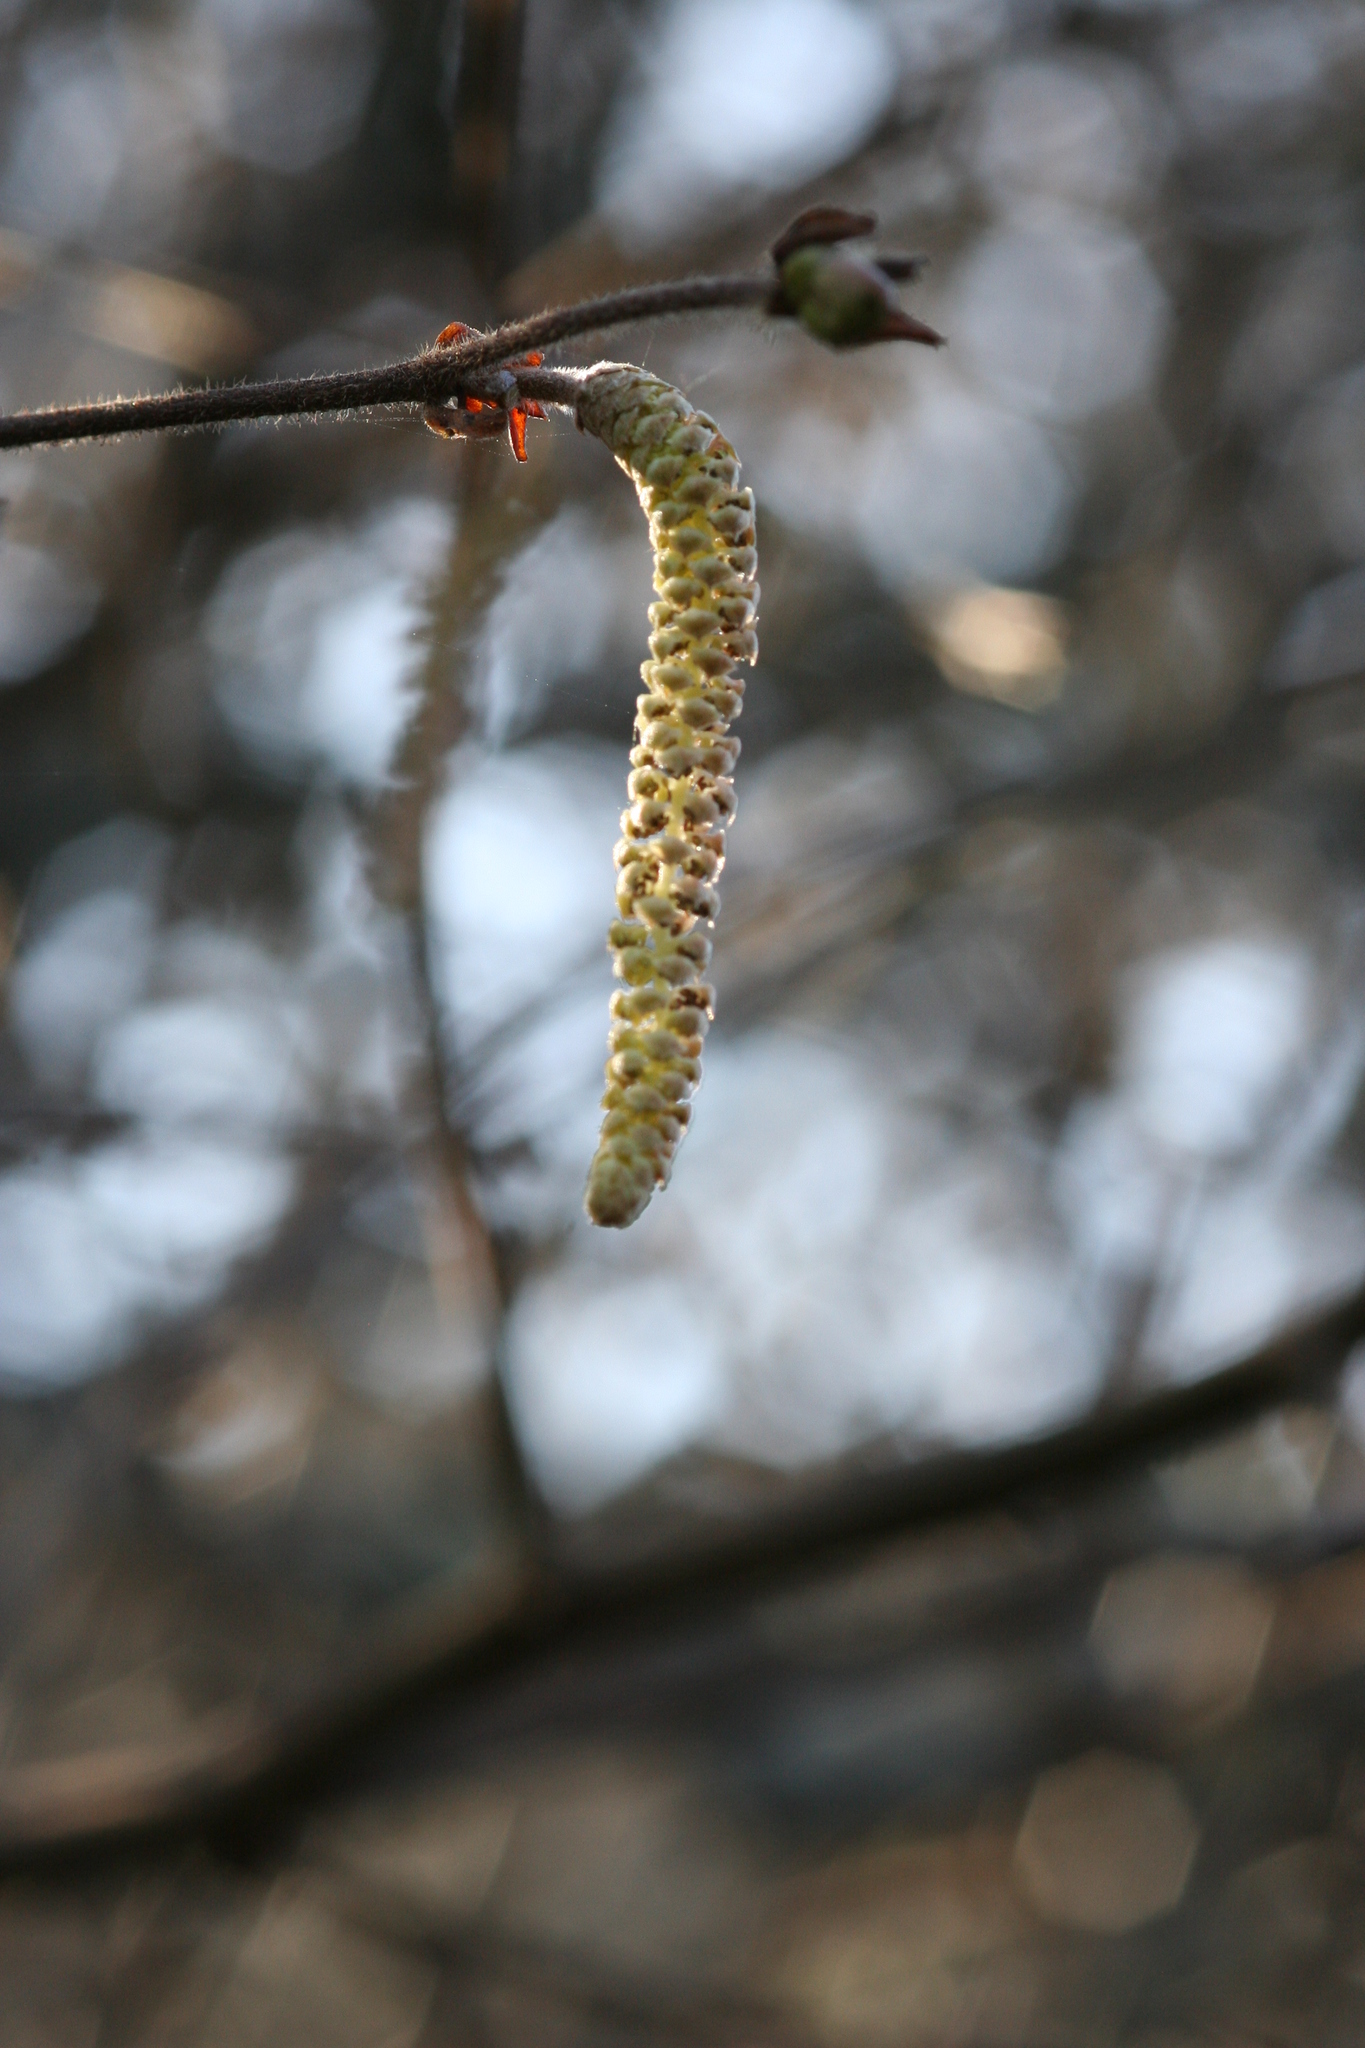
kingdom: Plantae
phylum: Tracheophyta
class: Magnoliopsida
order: Fagales
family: Betulaceae
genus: Corylus
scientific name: Corylus cornuta
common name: Beaked hazel
